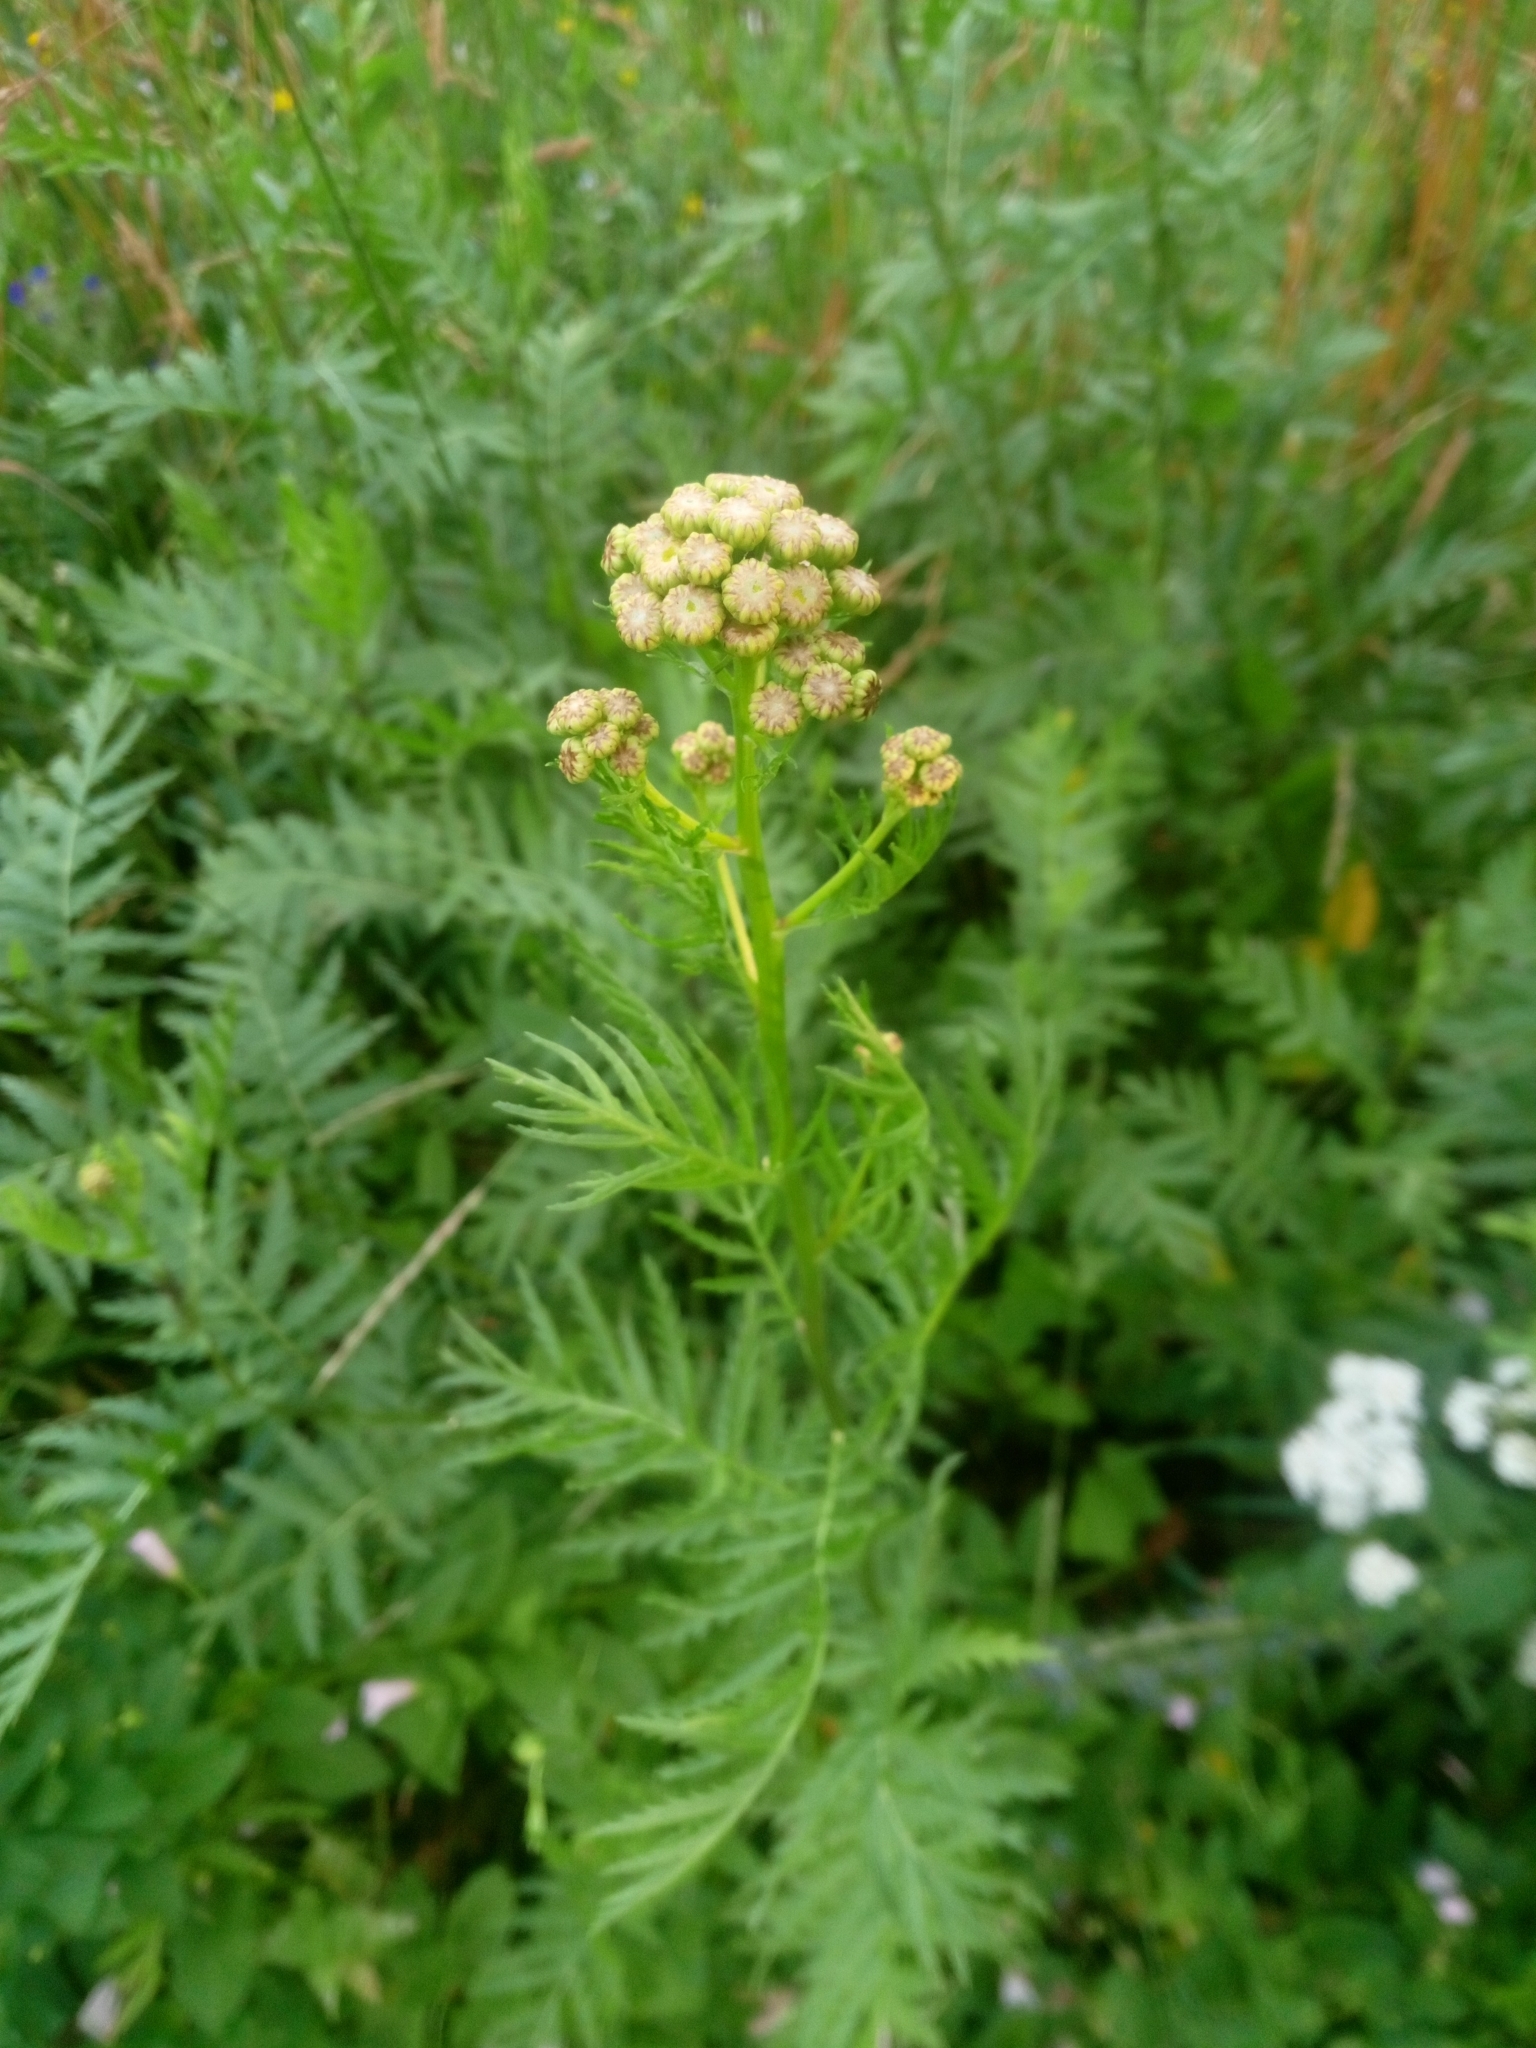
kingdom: Plantae
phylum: Tracheophyta
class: Magnoliopsida
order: Asterales
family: Asteraceae
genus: Tanacetum
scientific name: Tanacetum vulgare
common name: Common tansy
